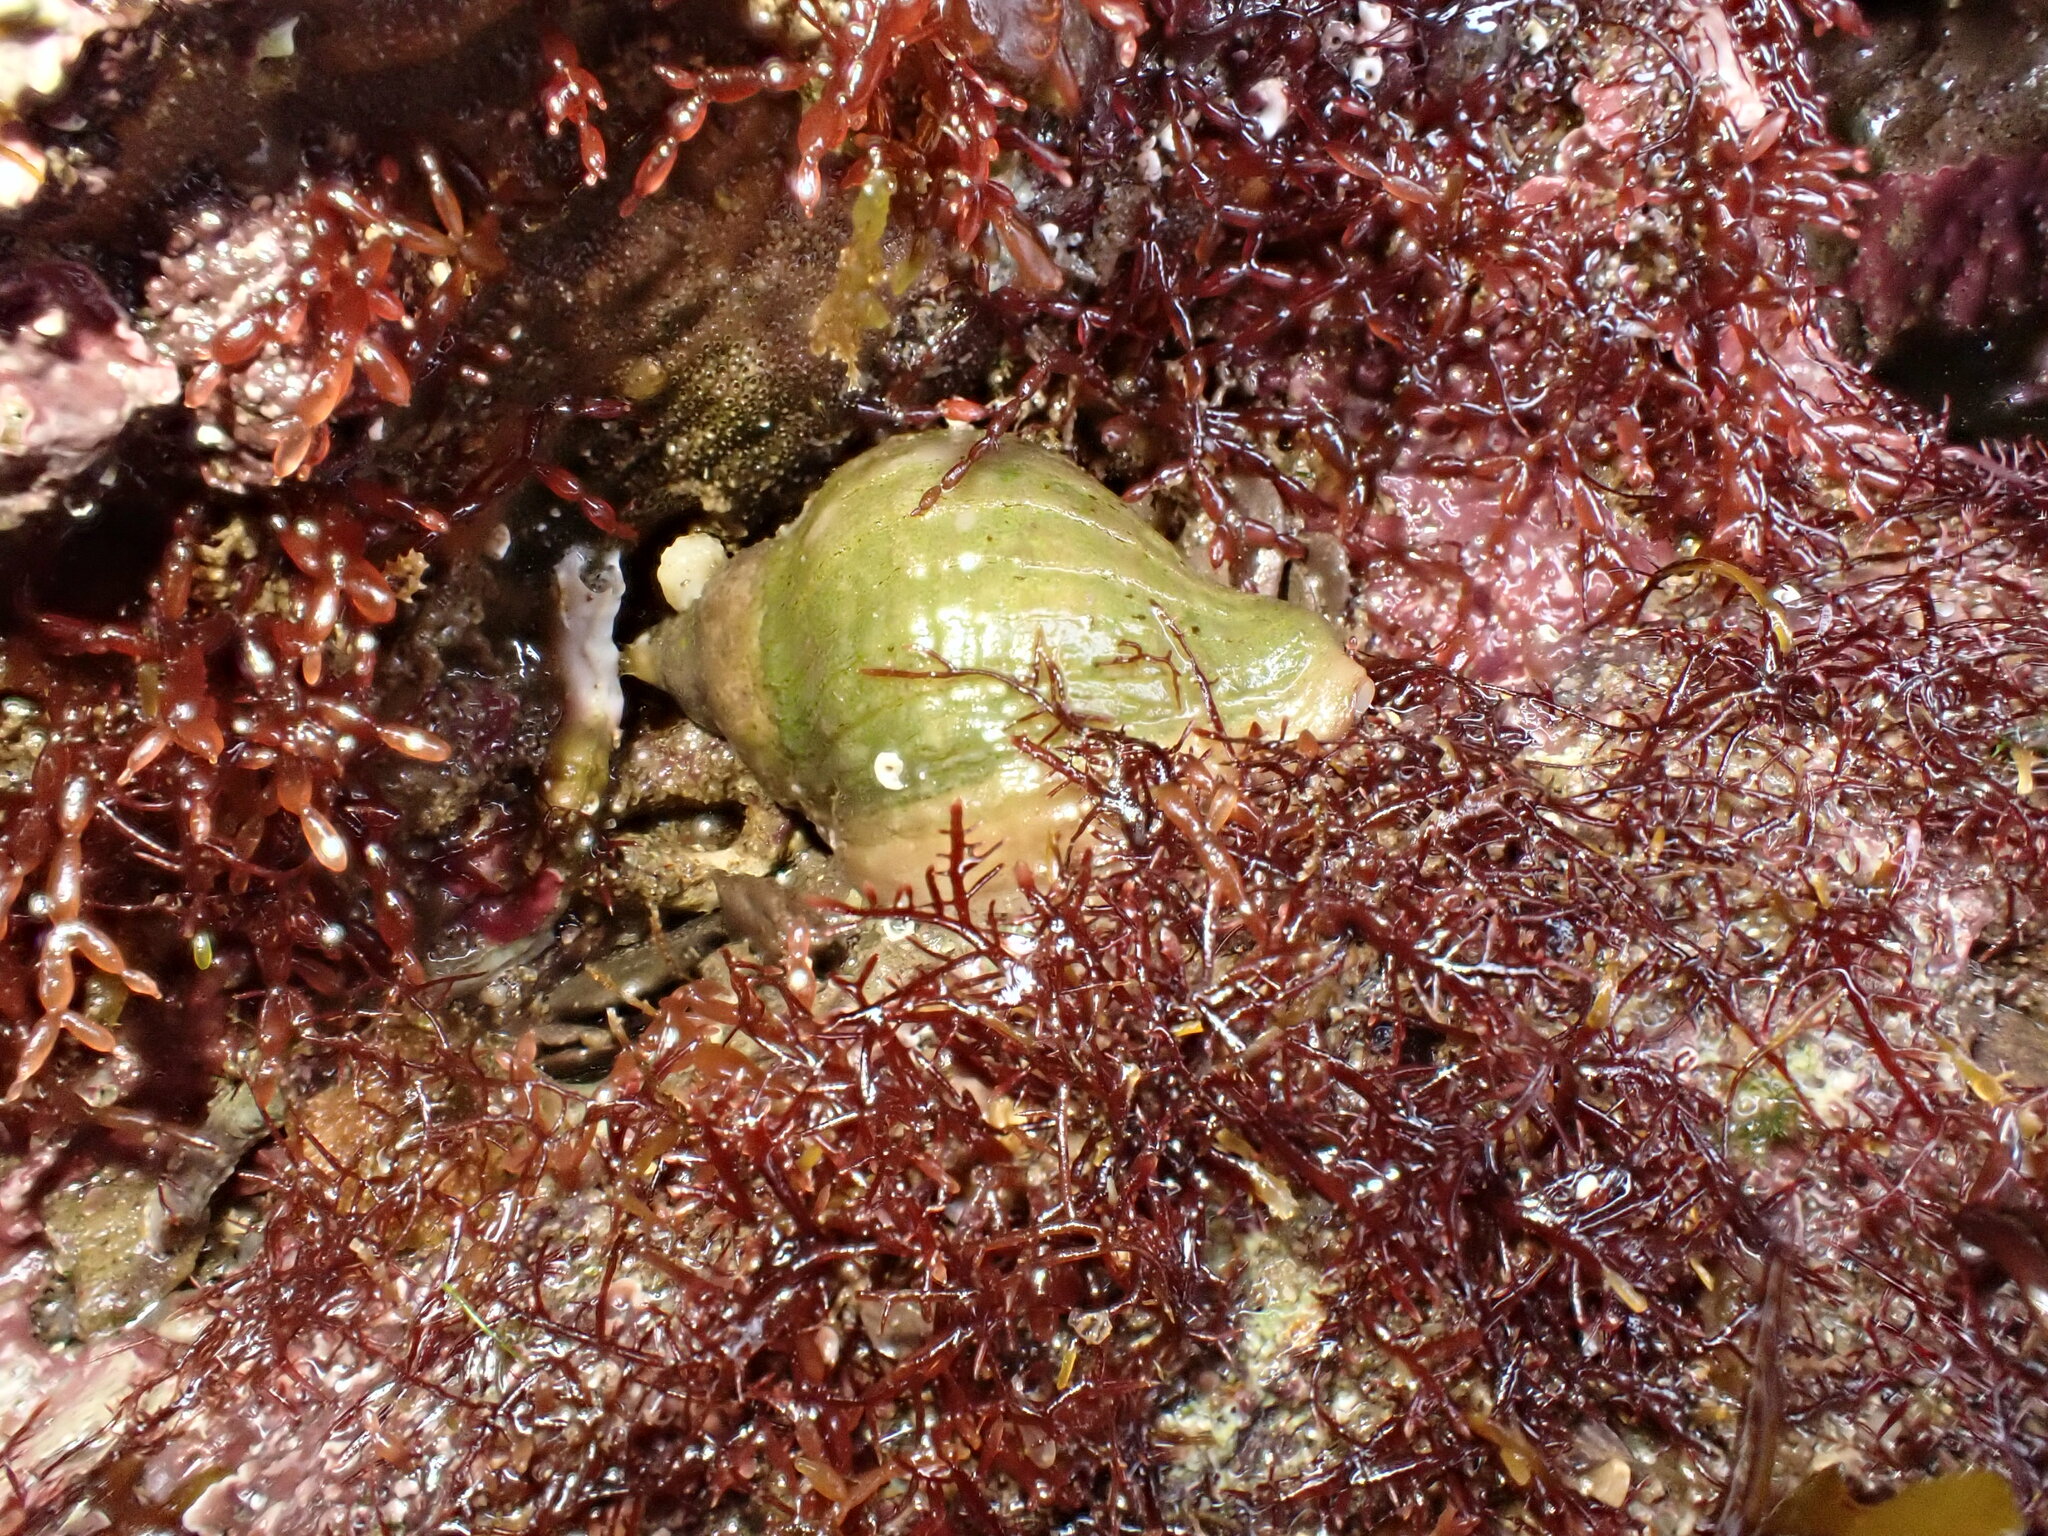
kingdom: Animalia
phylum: Mollusca
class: Gastropoda
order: Neogastropoda
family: Muricidae
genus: Nucella
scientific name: Nucella lapillus
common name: Dog whelk
